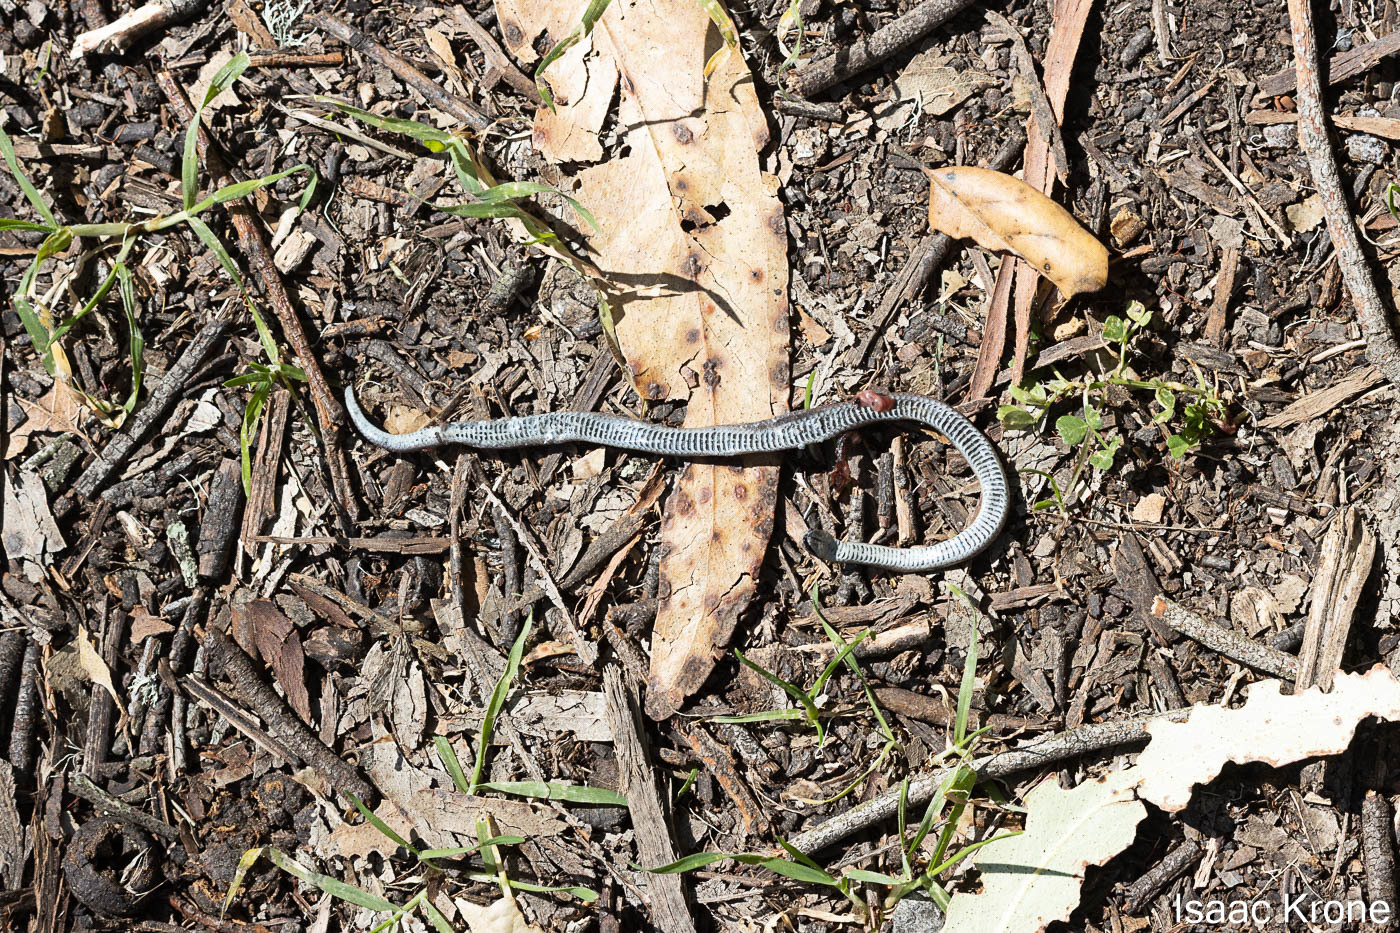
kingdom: Animalia
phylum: Chordata
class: Squamata
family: Colubridae
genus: Contia
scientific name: Contia tenuis
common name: Sharptail snake
